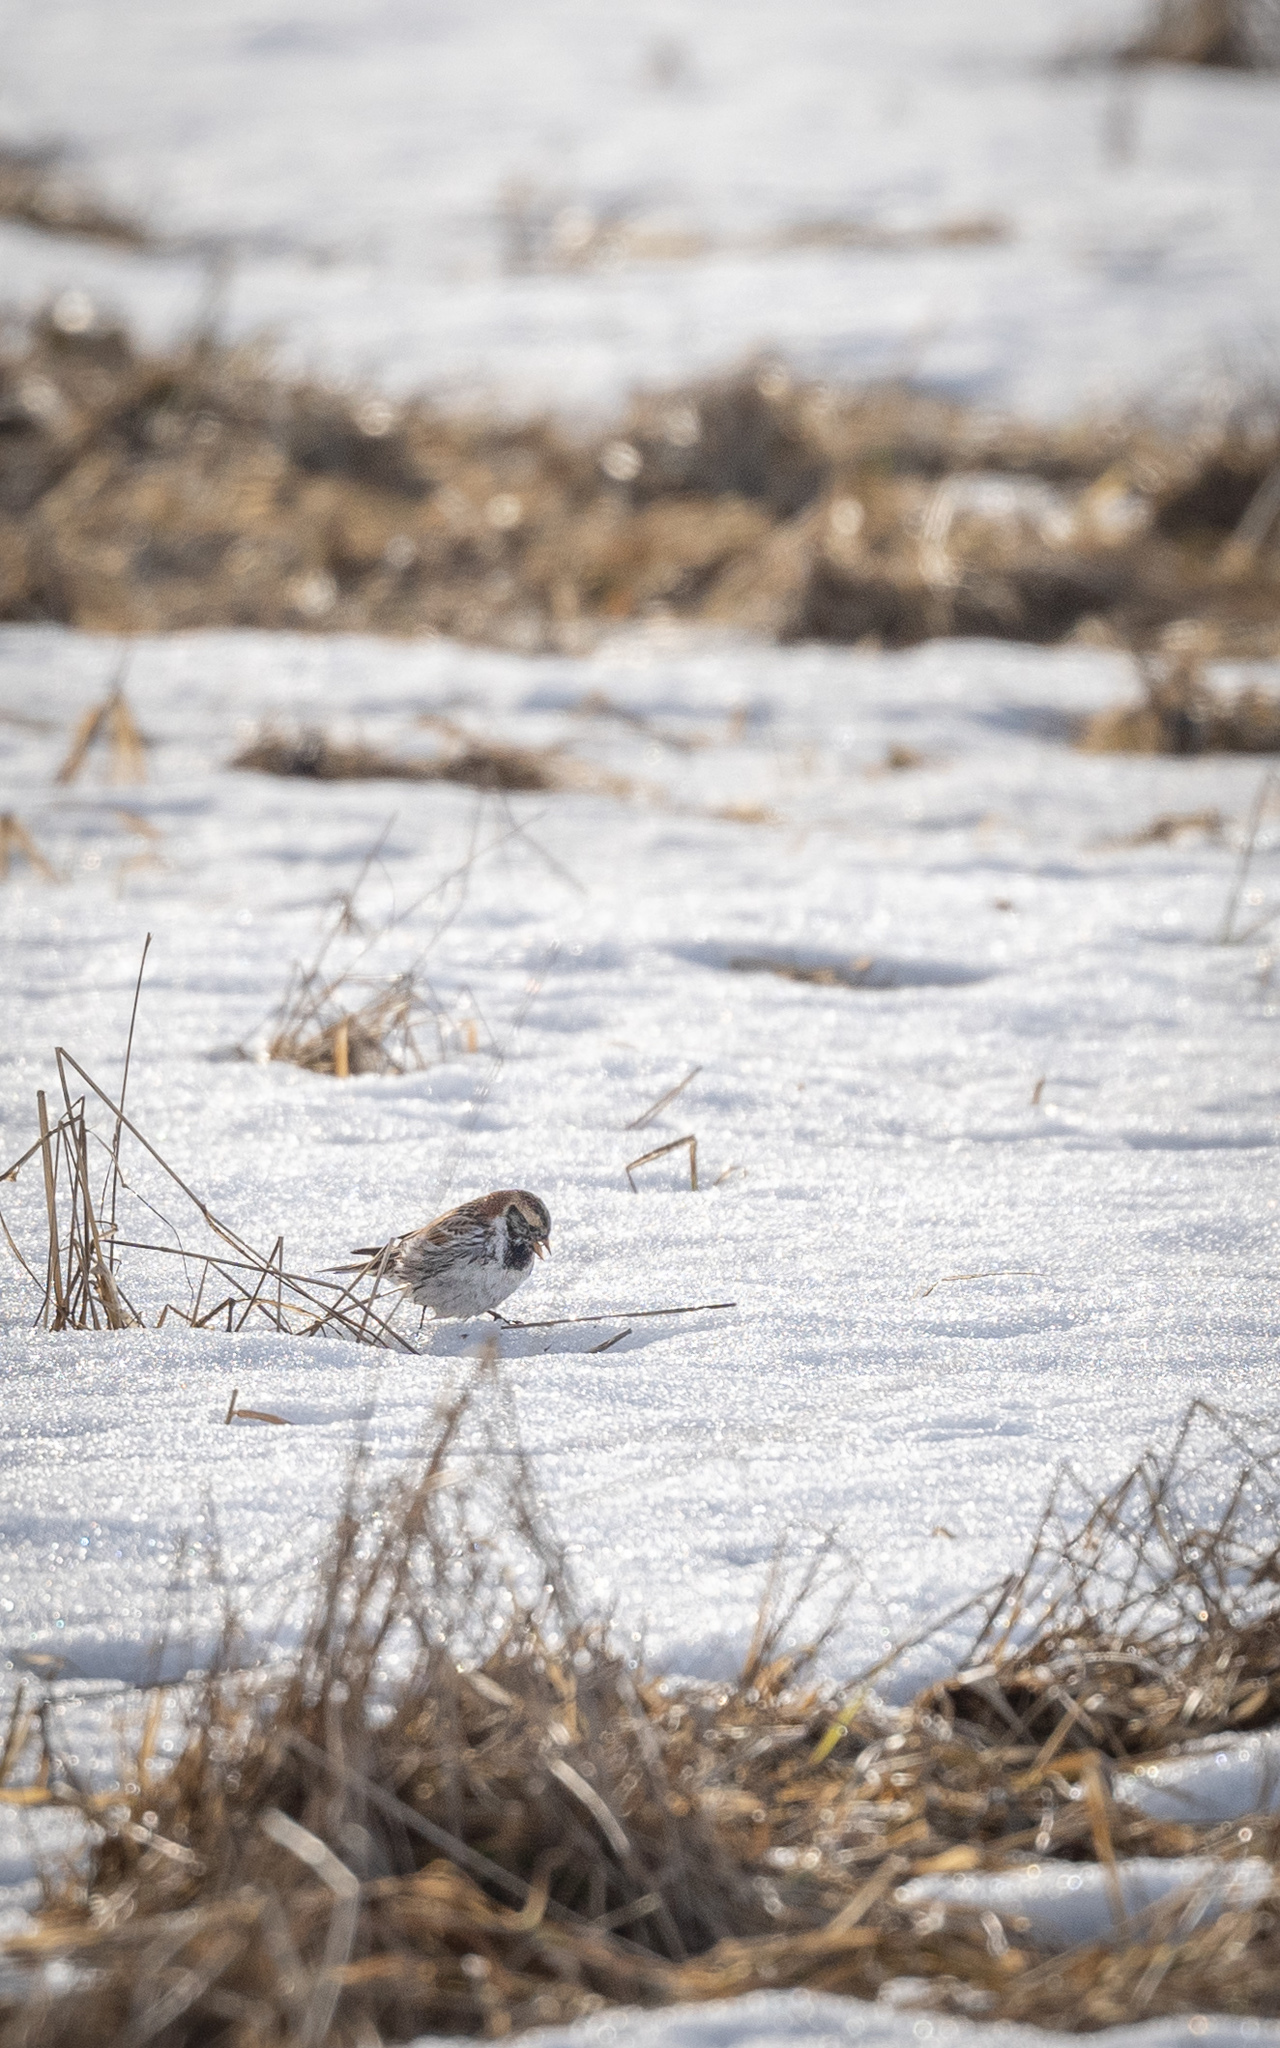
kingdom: Animalia
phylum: Chordata
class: Aves
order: Passeriformes
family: Calcariidae
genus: Calcarius
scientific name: Calcarius lapponicus
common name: Lapland longspur
